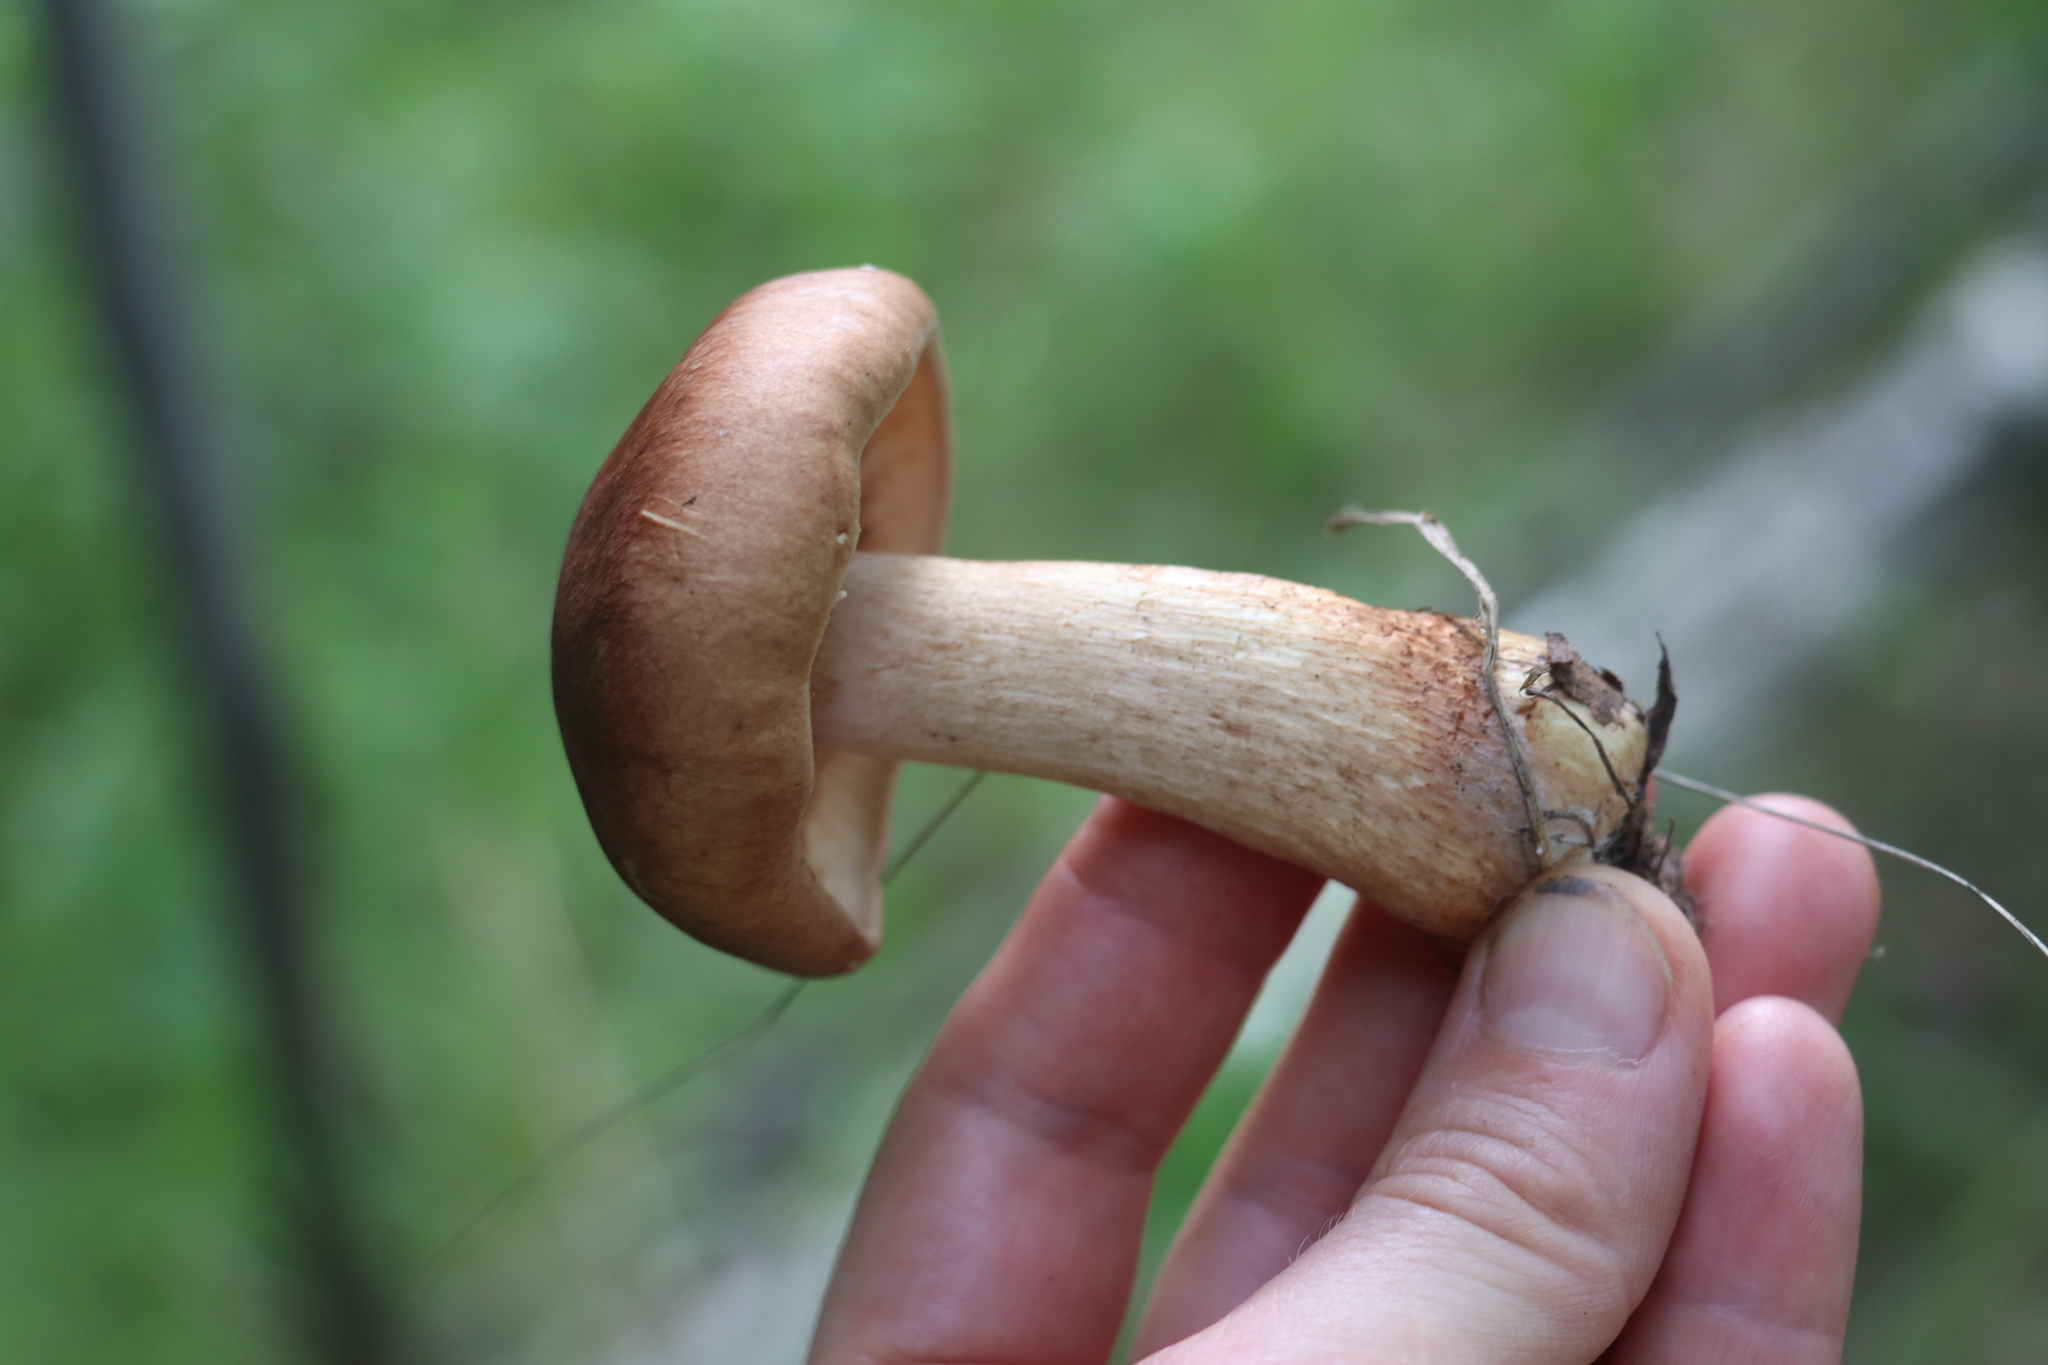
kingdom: Fungi
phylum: Basidiomycota
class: Agaricomycetes
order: Agaricales
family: Tricholomataceae
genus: Tricholoma
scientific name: Tricholoma fulvum
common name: Birch knight
